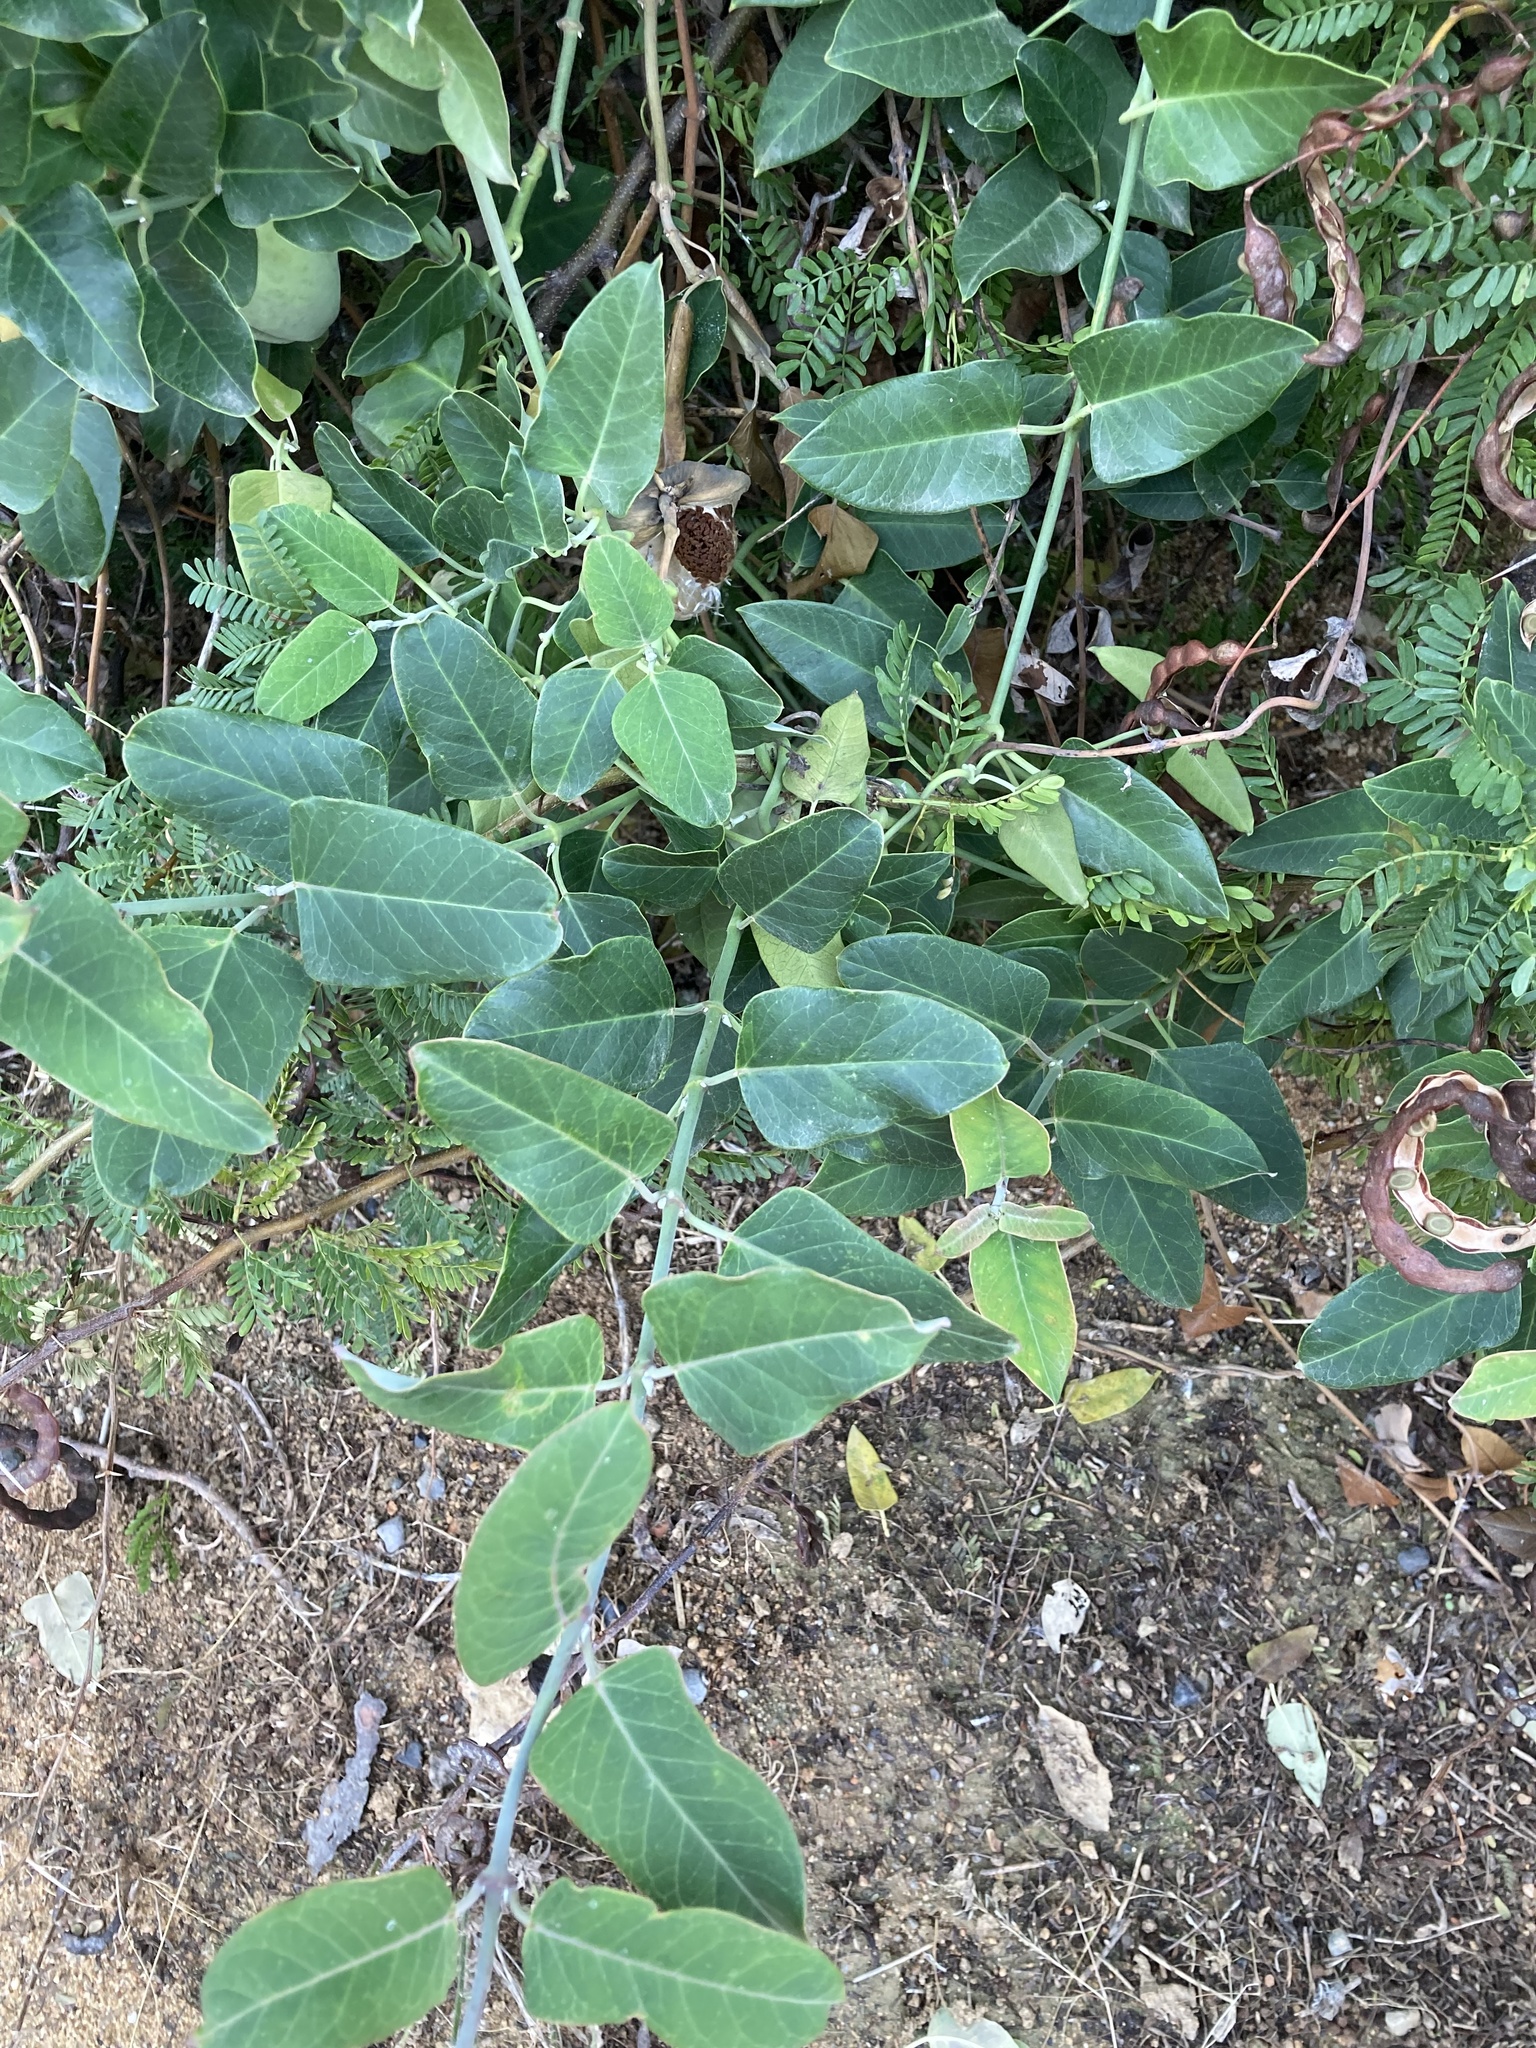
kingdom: Plantae
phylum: Tracheophyta
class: Magnoliopsida
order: Gentianales
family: Apocynaceae
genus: Araujia
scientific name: Araujia sericifera
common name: White bladderflower
